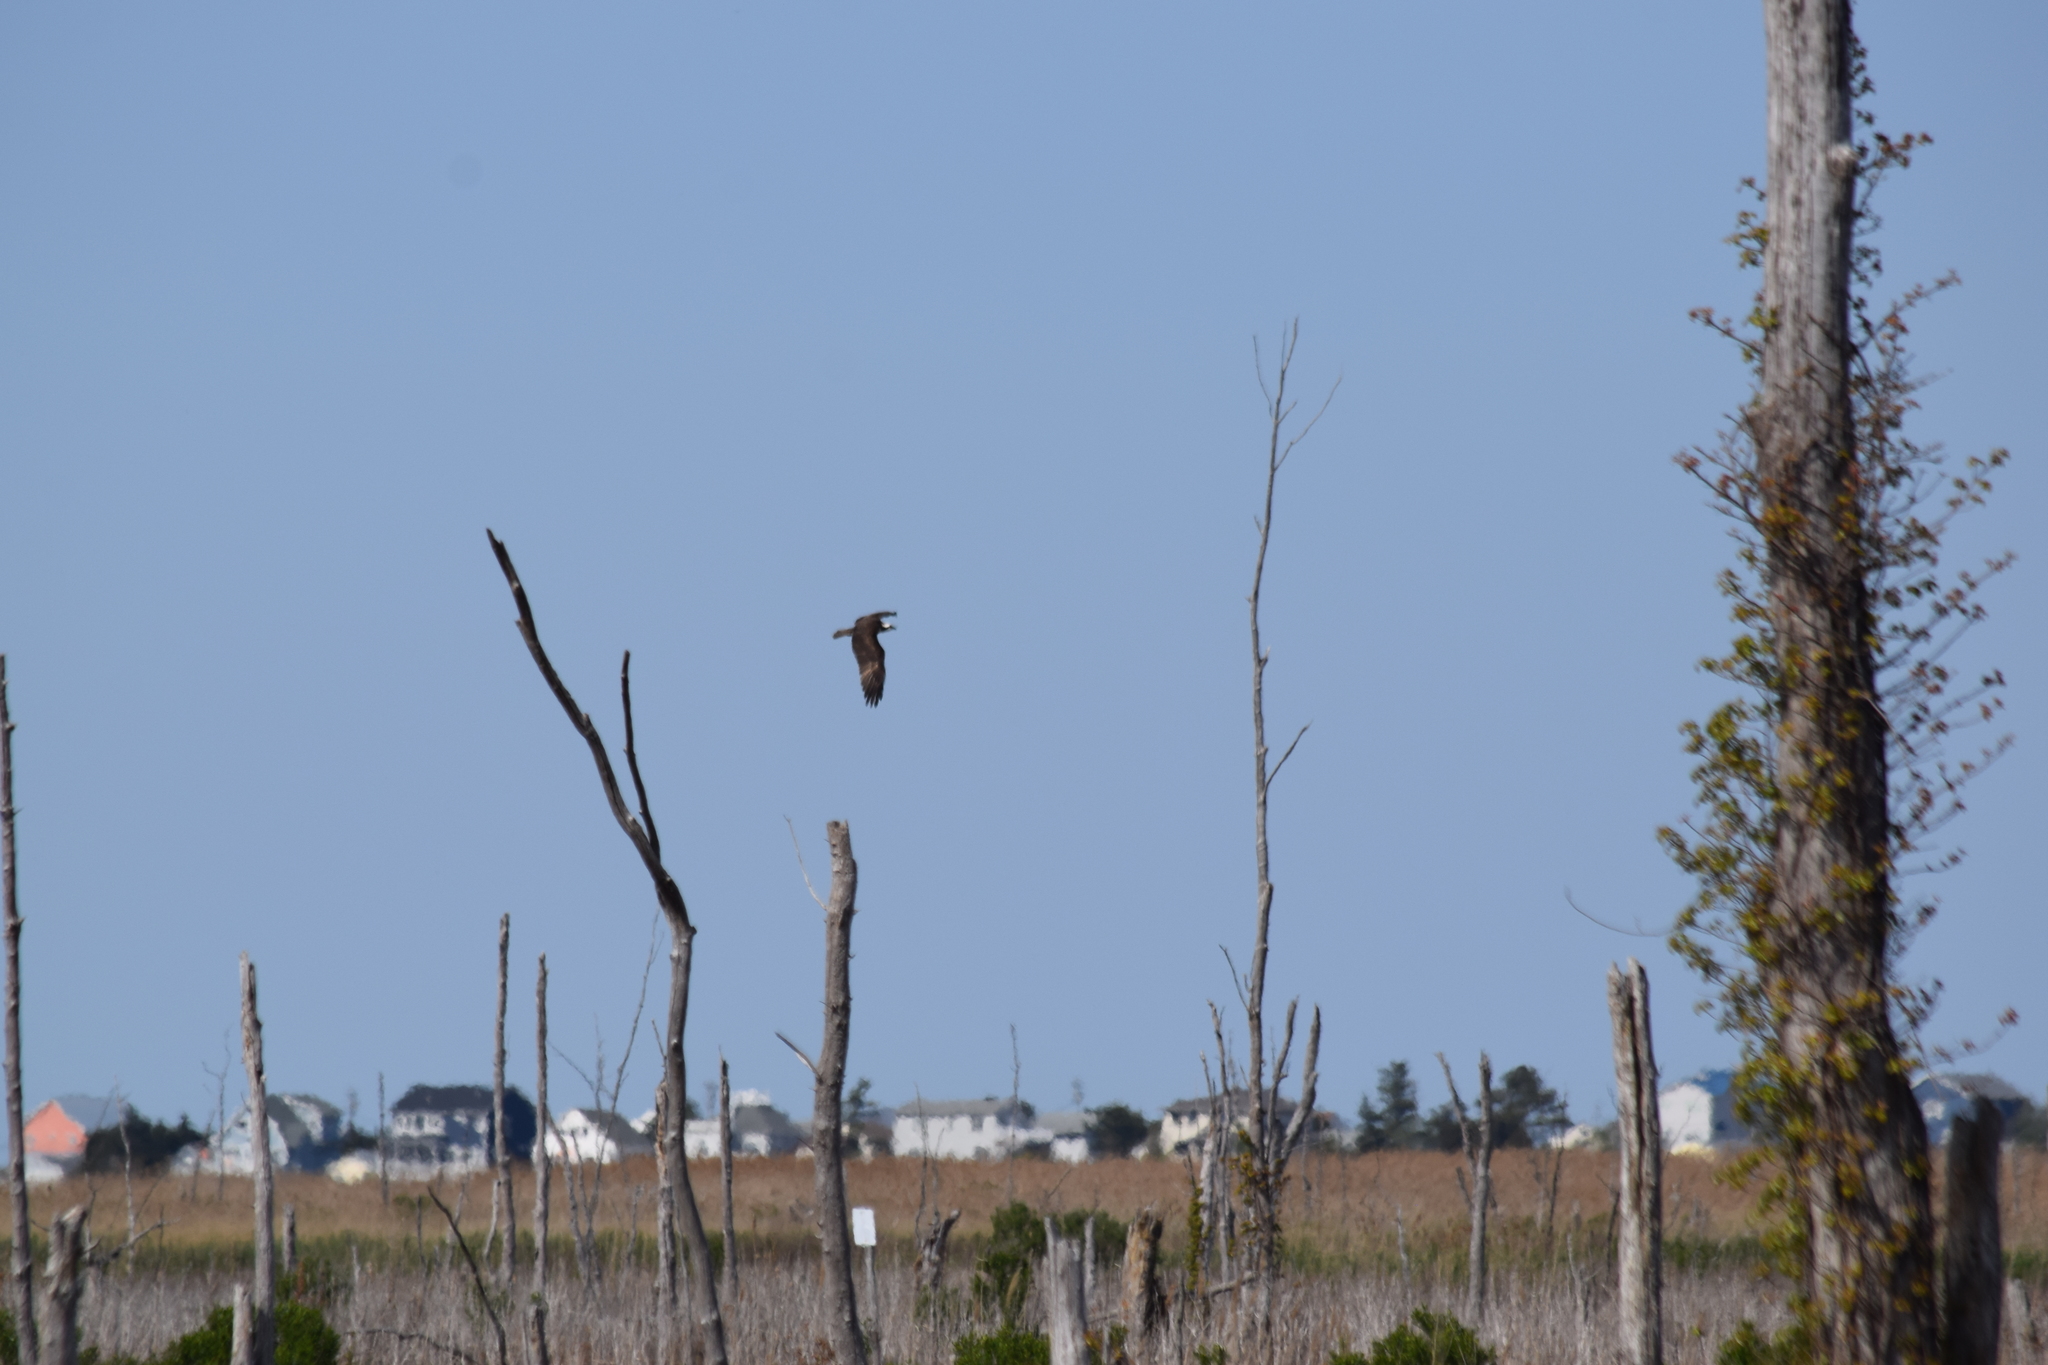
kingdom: Animalia
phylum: Chordata
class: Aves
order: Accipitriformes
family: Pandionidae
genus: Pandion
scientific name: Pandion haliaetus
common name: Osprey
